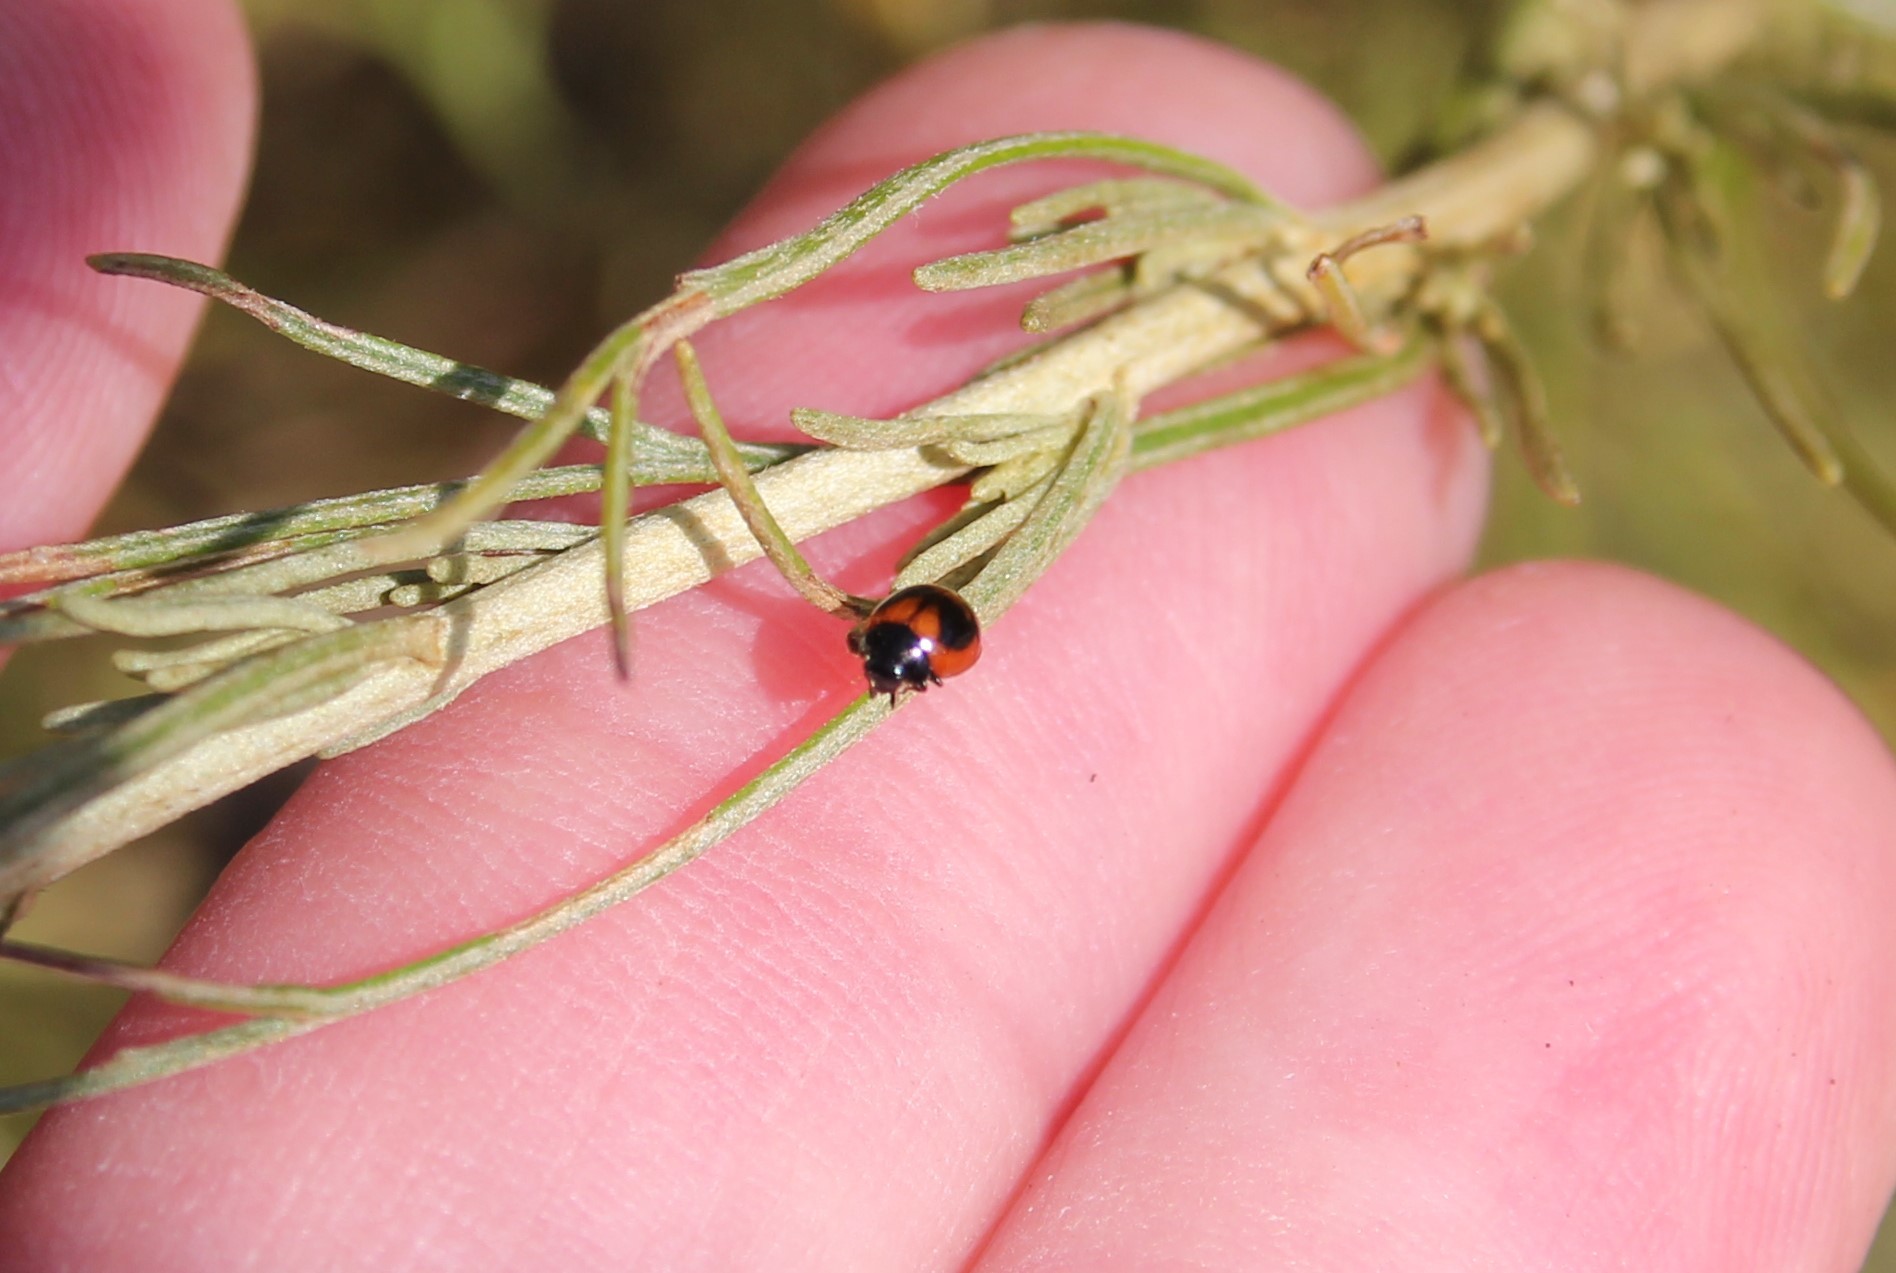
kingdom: Animalia
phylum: Arthropoda
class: Insecta
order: Coleoptera
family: Coccinellidae
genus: Exochomus
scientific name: Exochomus fasciatus
